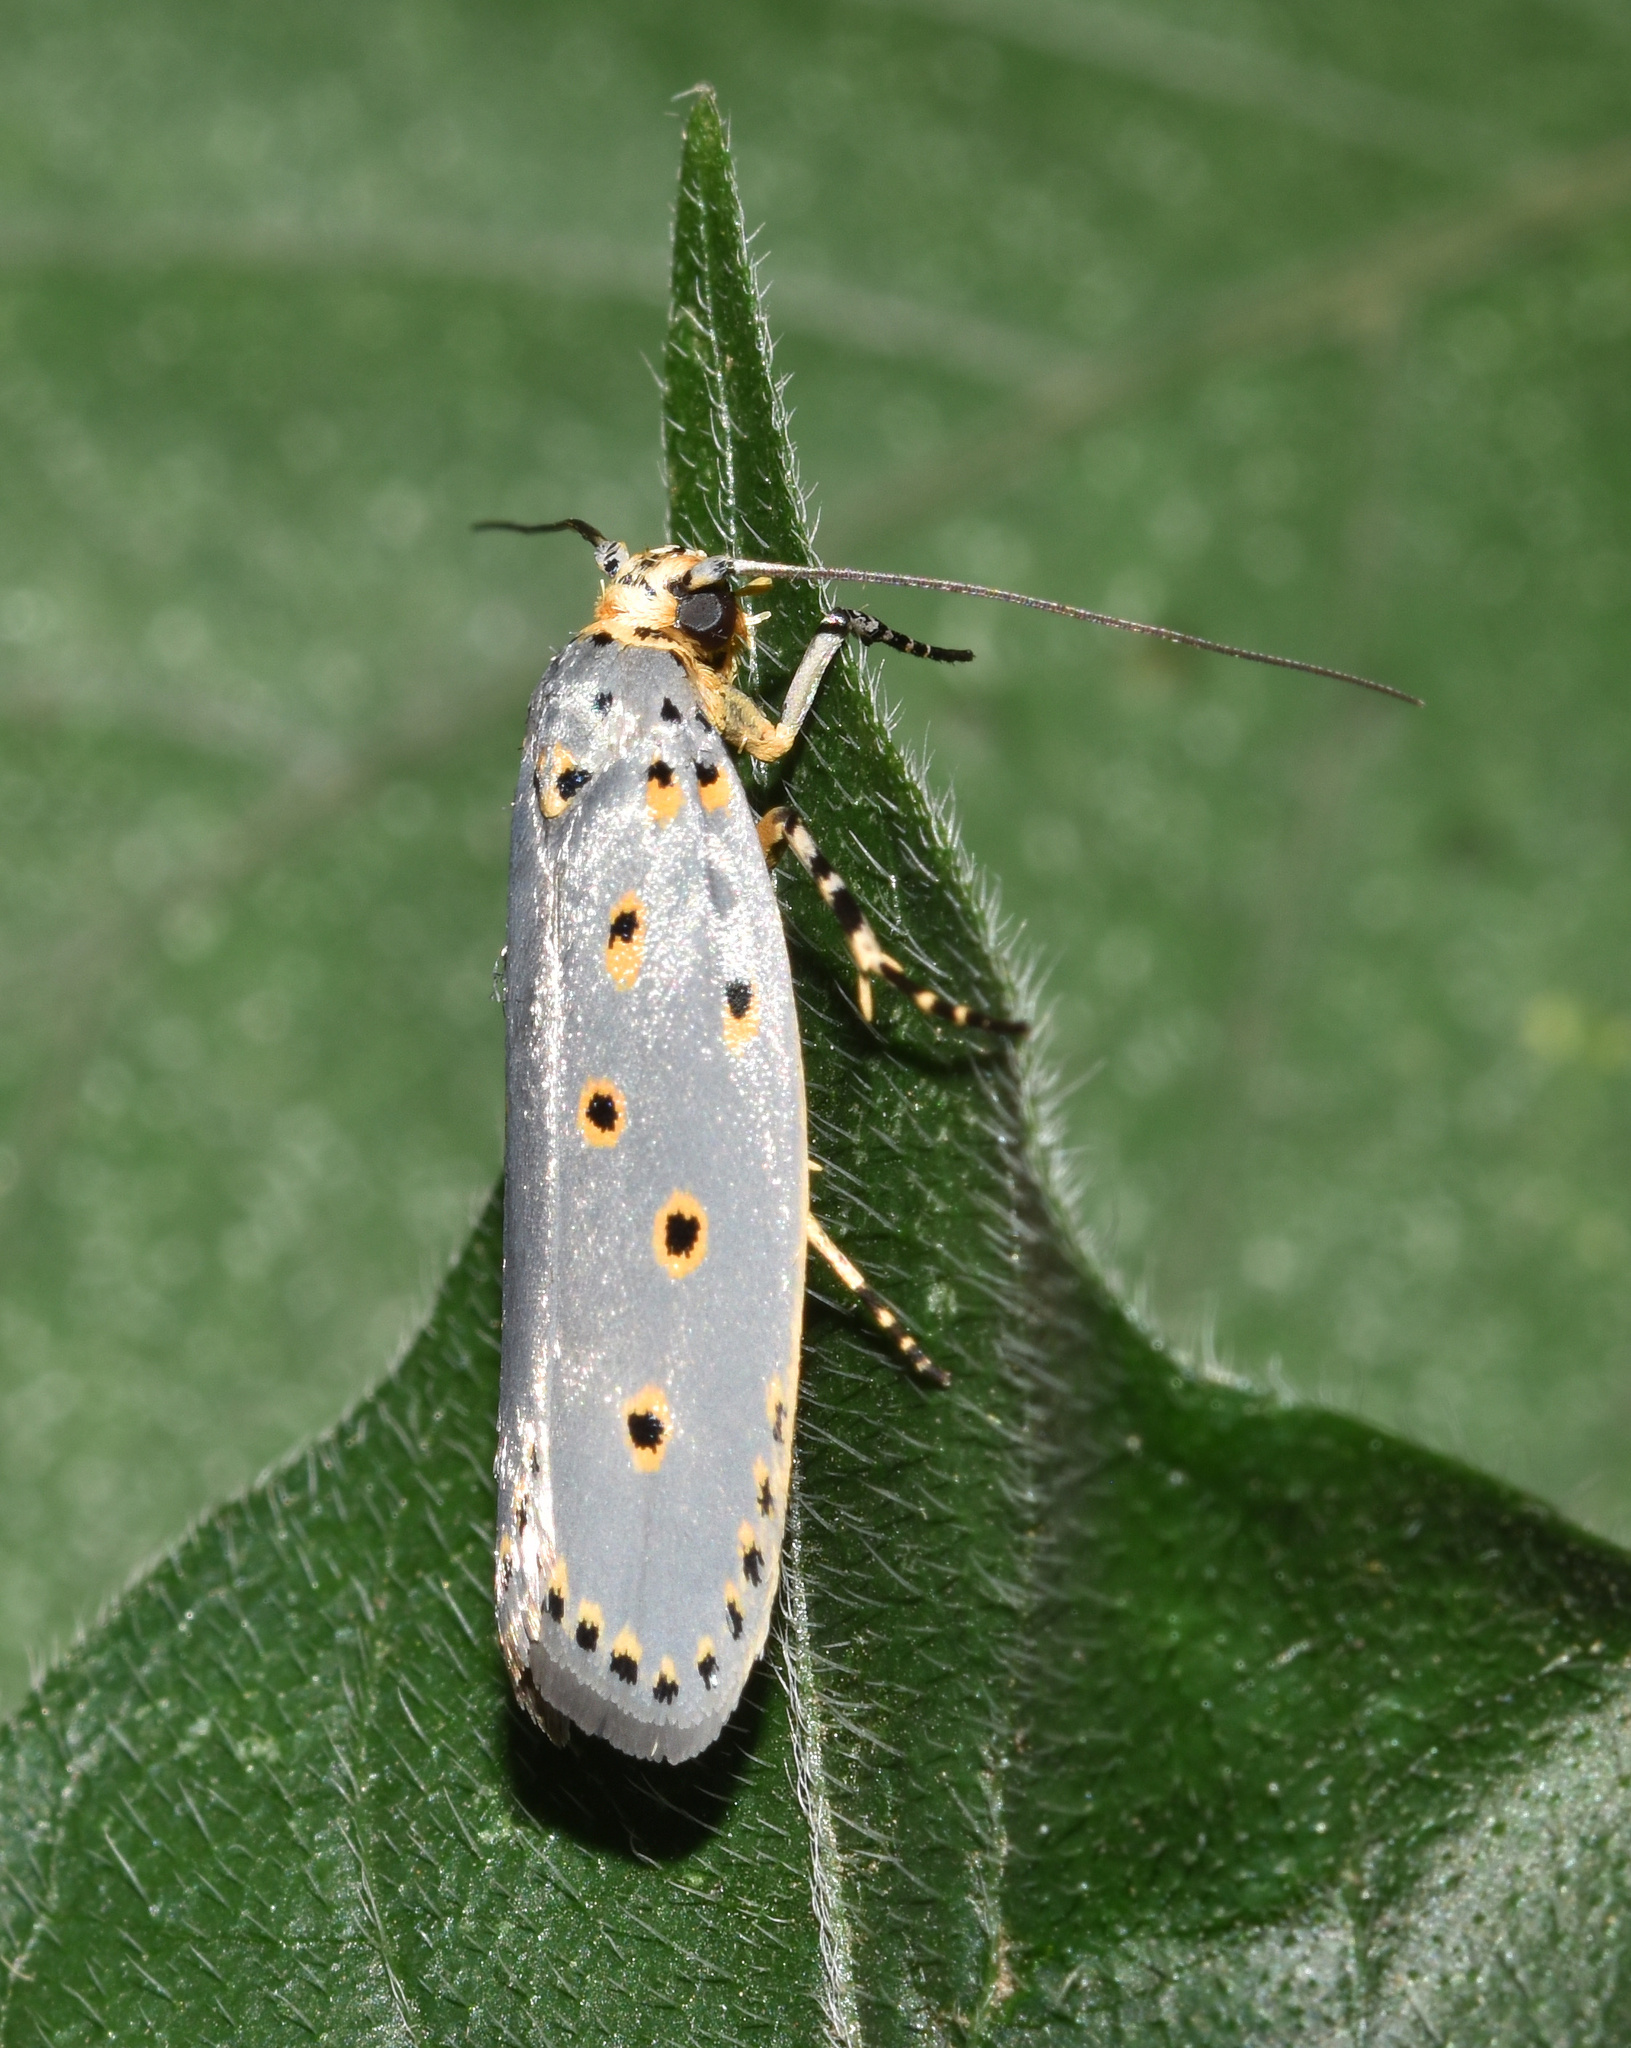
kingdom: Animalia
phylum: Arthropoda
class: Insecta
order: Lepidoptera
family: Ethmiidae
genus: Ethmia
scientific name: Ethmia circumdatella
